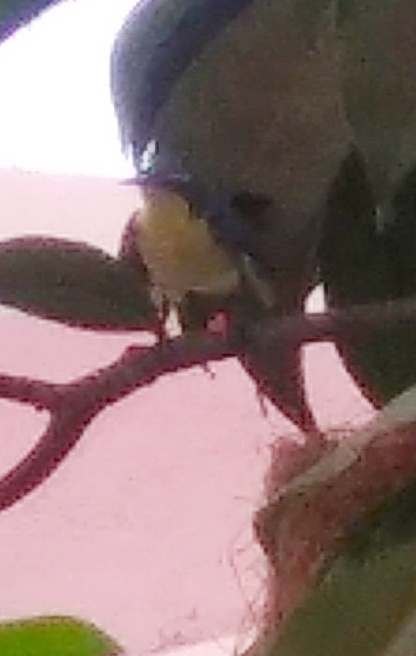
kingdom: Animalia
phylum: Chordata
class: Aves
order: Passeriformes
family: Muscicapidae
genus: Luscinia
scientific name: Luscinia brunnea
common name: Indian blue robin
